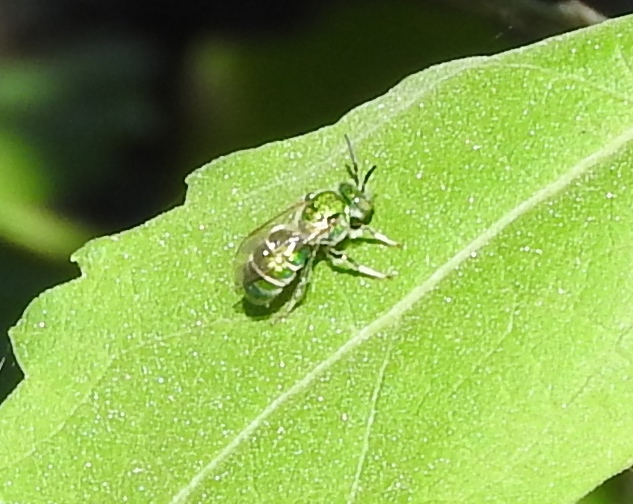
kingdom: Animalia
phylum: Arthropoda
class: Insecta
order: Hymenoptera
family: Halictidae
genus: Augochloropsis
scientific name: Augochloropsis
